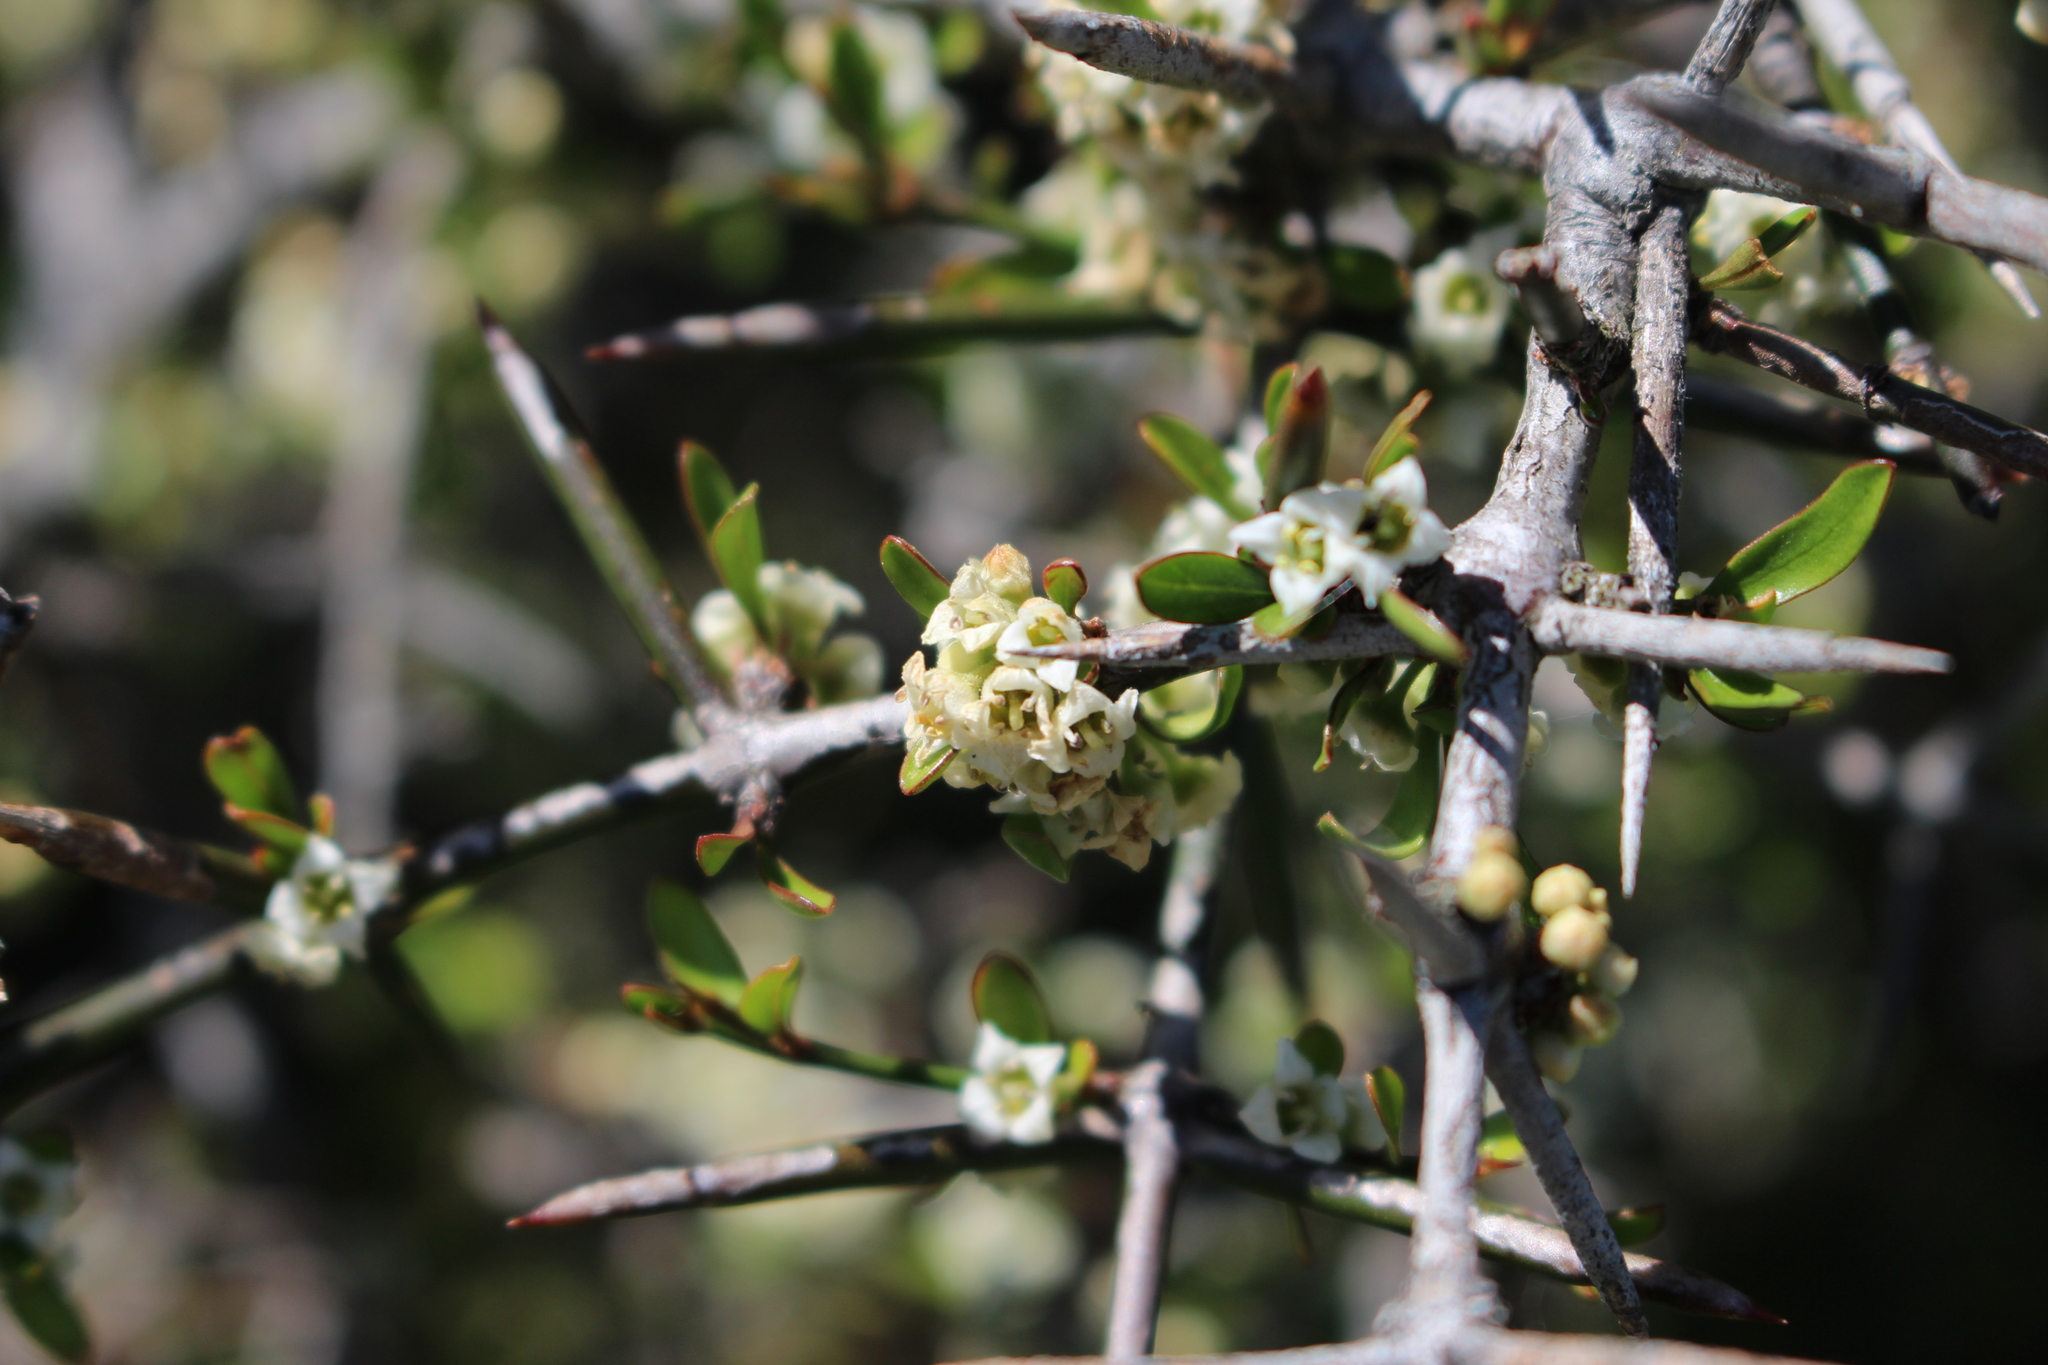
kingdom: Plantae
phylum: Tracheophyta
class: Magnoliopsida
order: Rosales
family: Rhamnaceae
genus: Discaria
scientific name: Discaria toumatou
